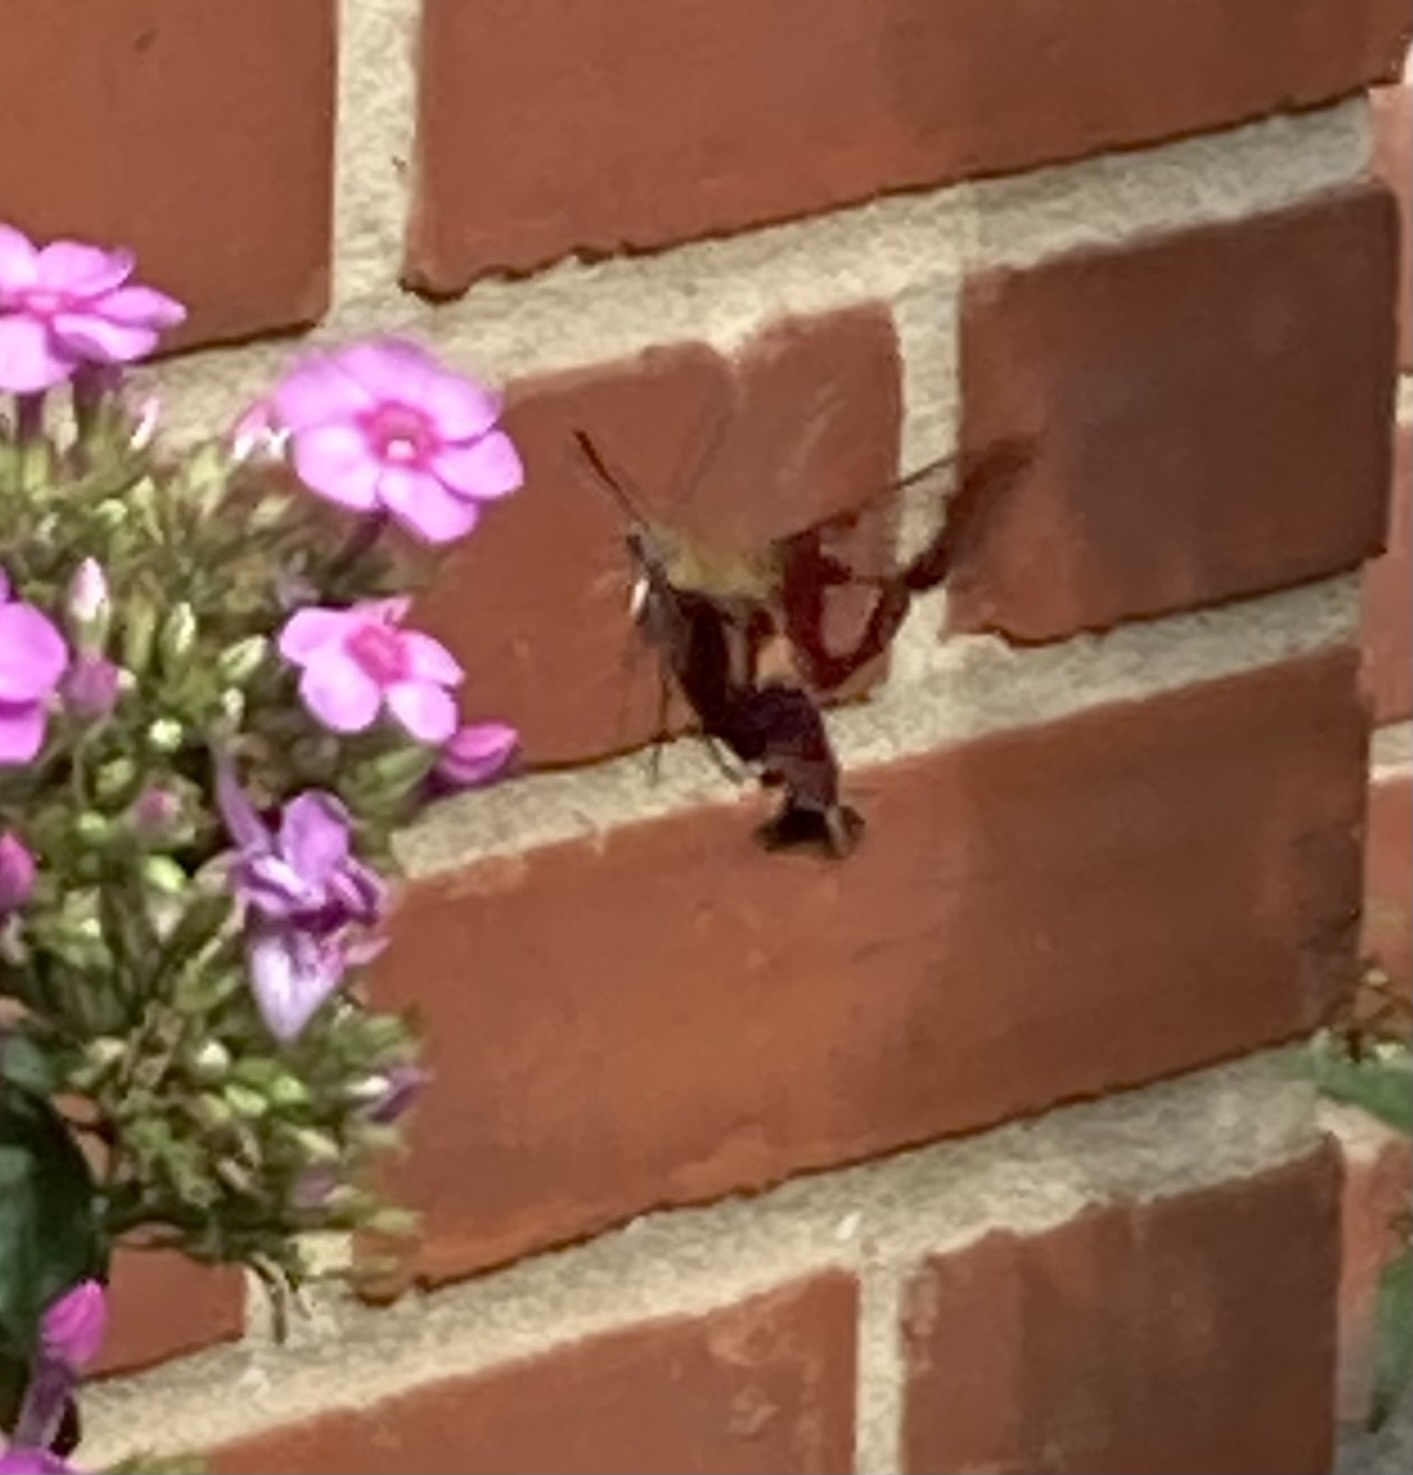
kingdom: Animalia
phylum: Arthropoda
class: Insecta
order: Lepidoptera
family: Sphingidae
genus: Hemaris
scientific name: Hemaris thysbe
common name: Common clear-wing
